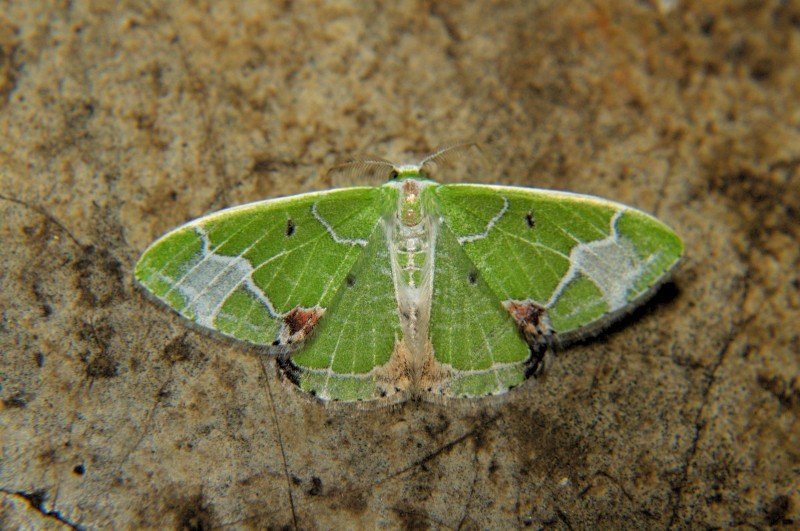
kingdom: Animalia
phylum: Arthropoda
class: Insecta
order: Lepidoptera
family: Geometridae
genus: Comibaena
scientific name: Comibaena albimarginata
